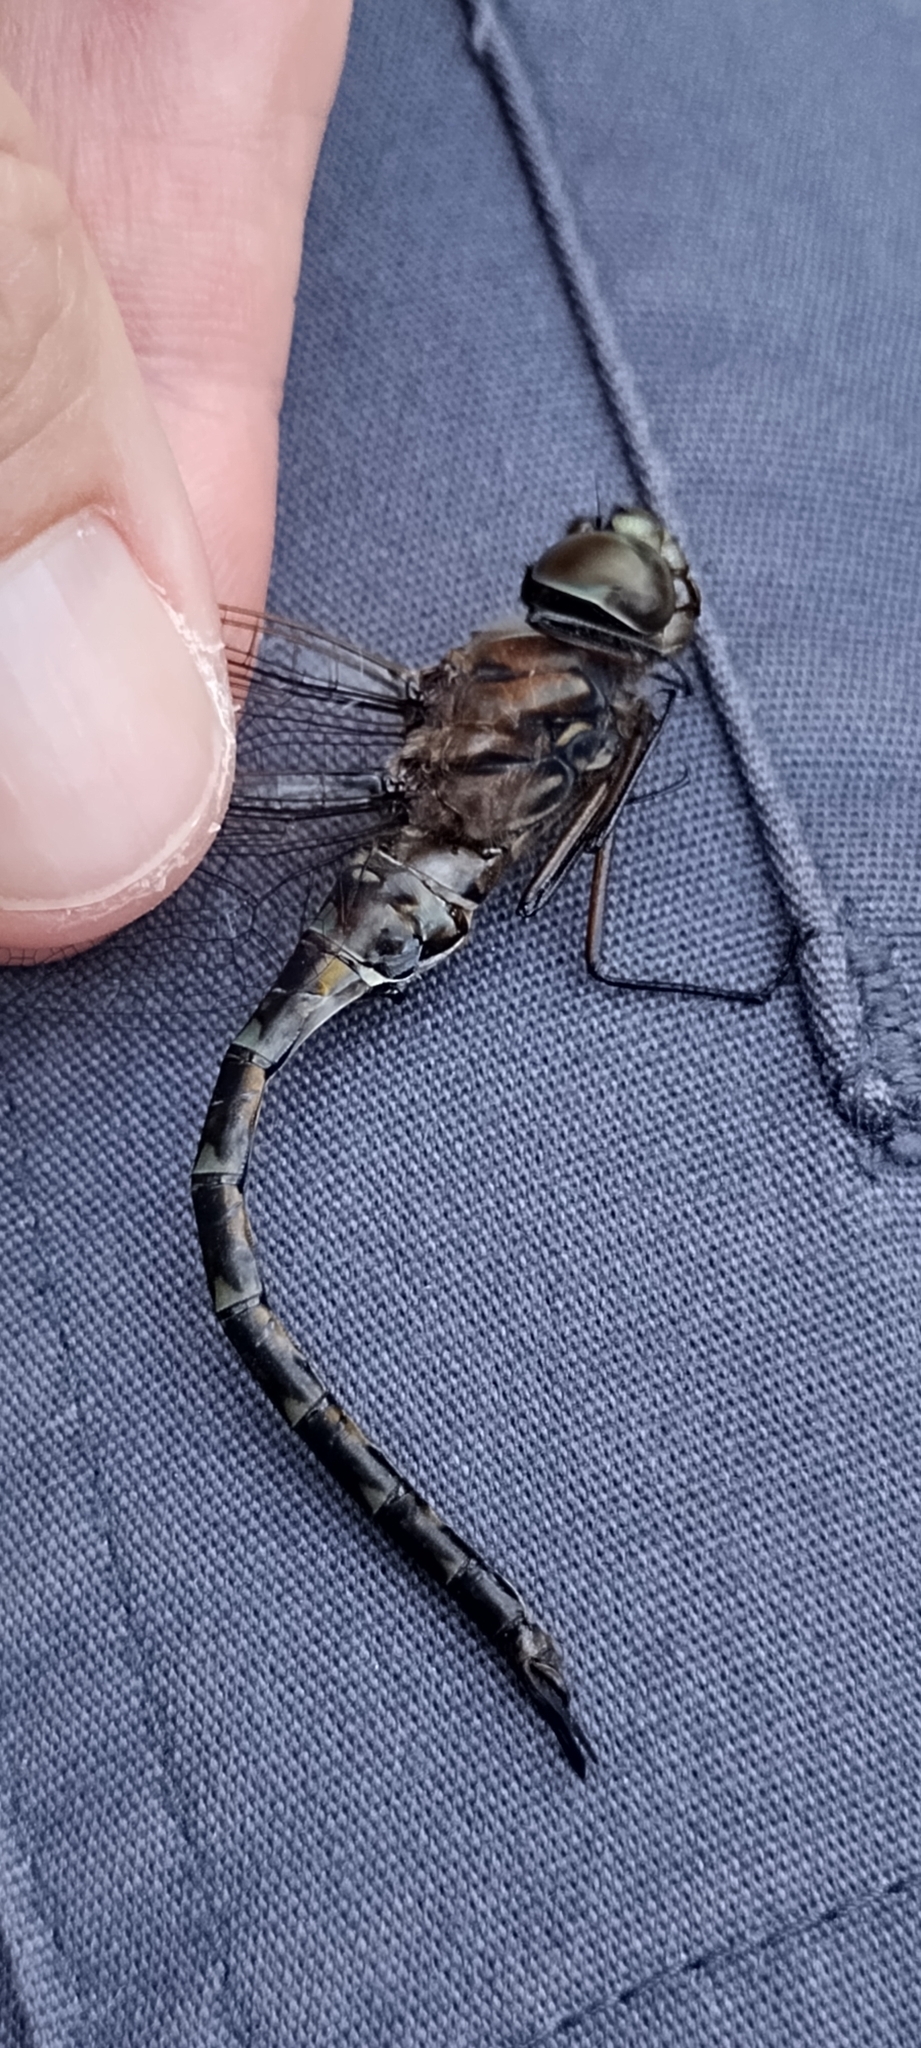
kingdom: Animalia
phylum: Arthropoda
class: Insecta
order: Odonata
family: Aeshnidae
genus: Gomphaeschna
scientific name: Gomphaeschna antilope
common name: Taper-tailed darner
